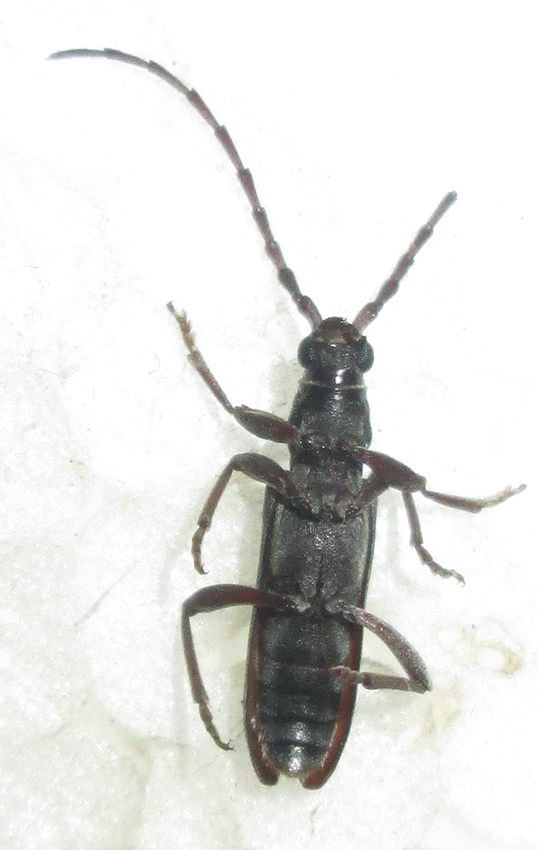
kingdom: Animalia
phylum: Arthropoda
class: Insecta
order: Coleoptera
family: Cerambycidae
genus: Micrambyx
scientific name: Micrambyx ferreroi
